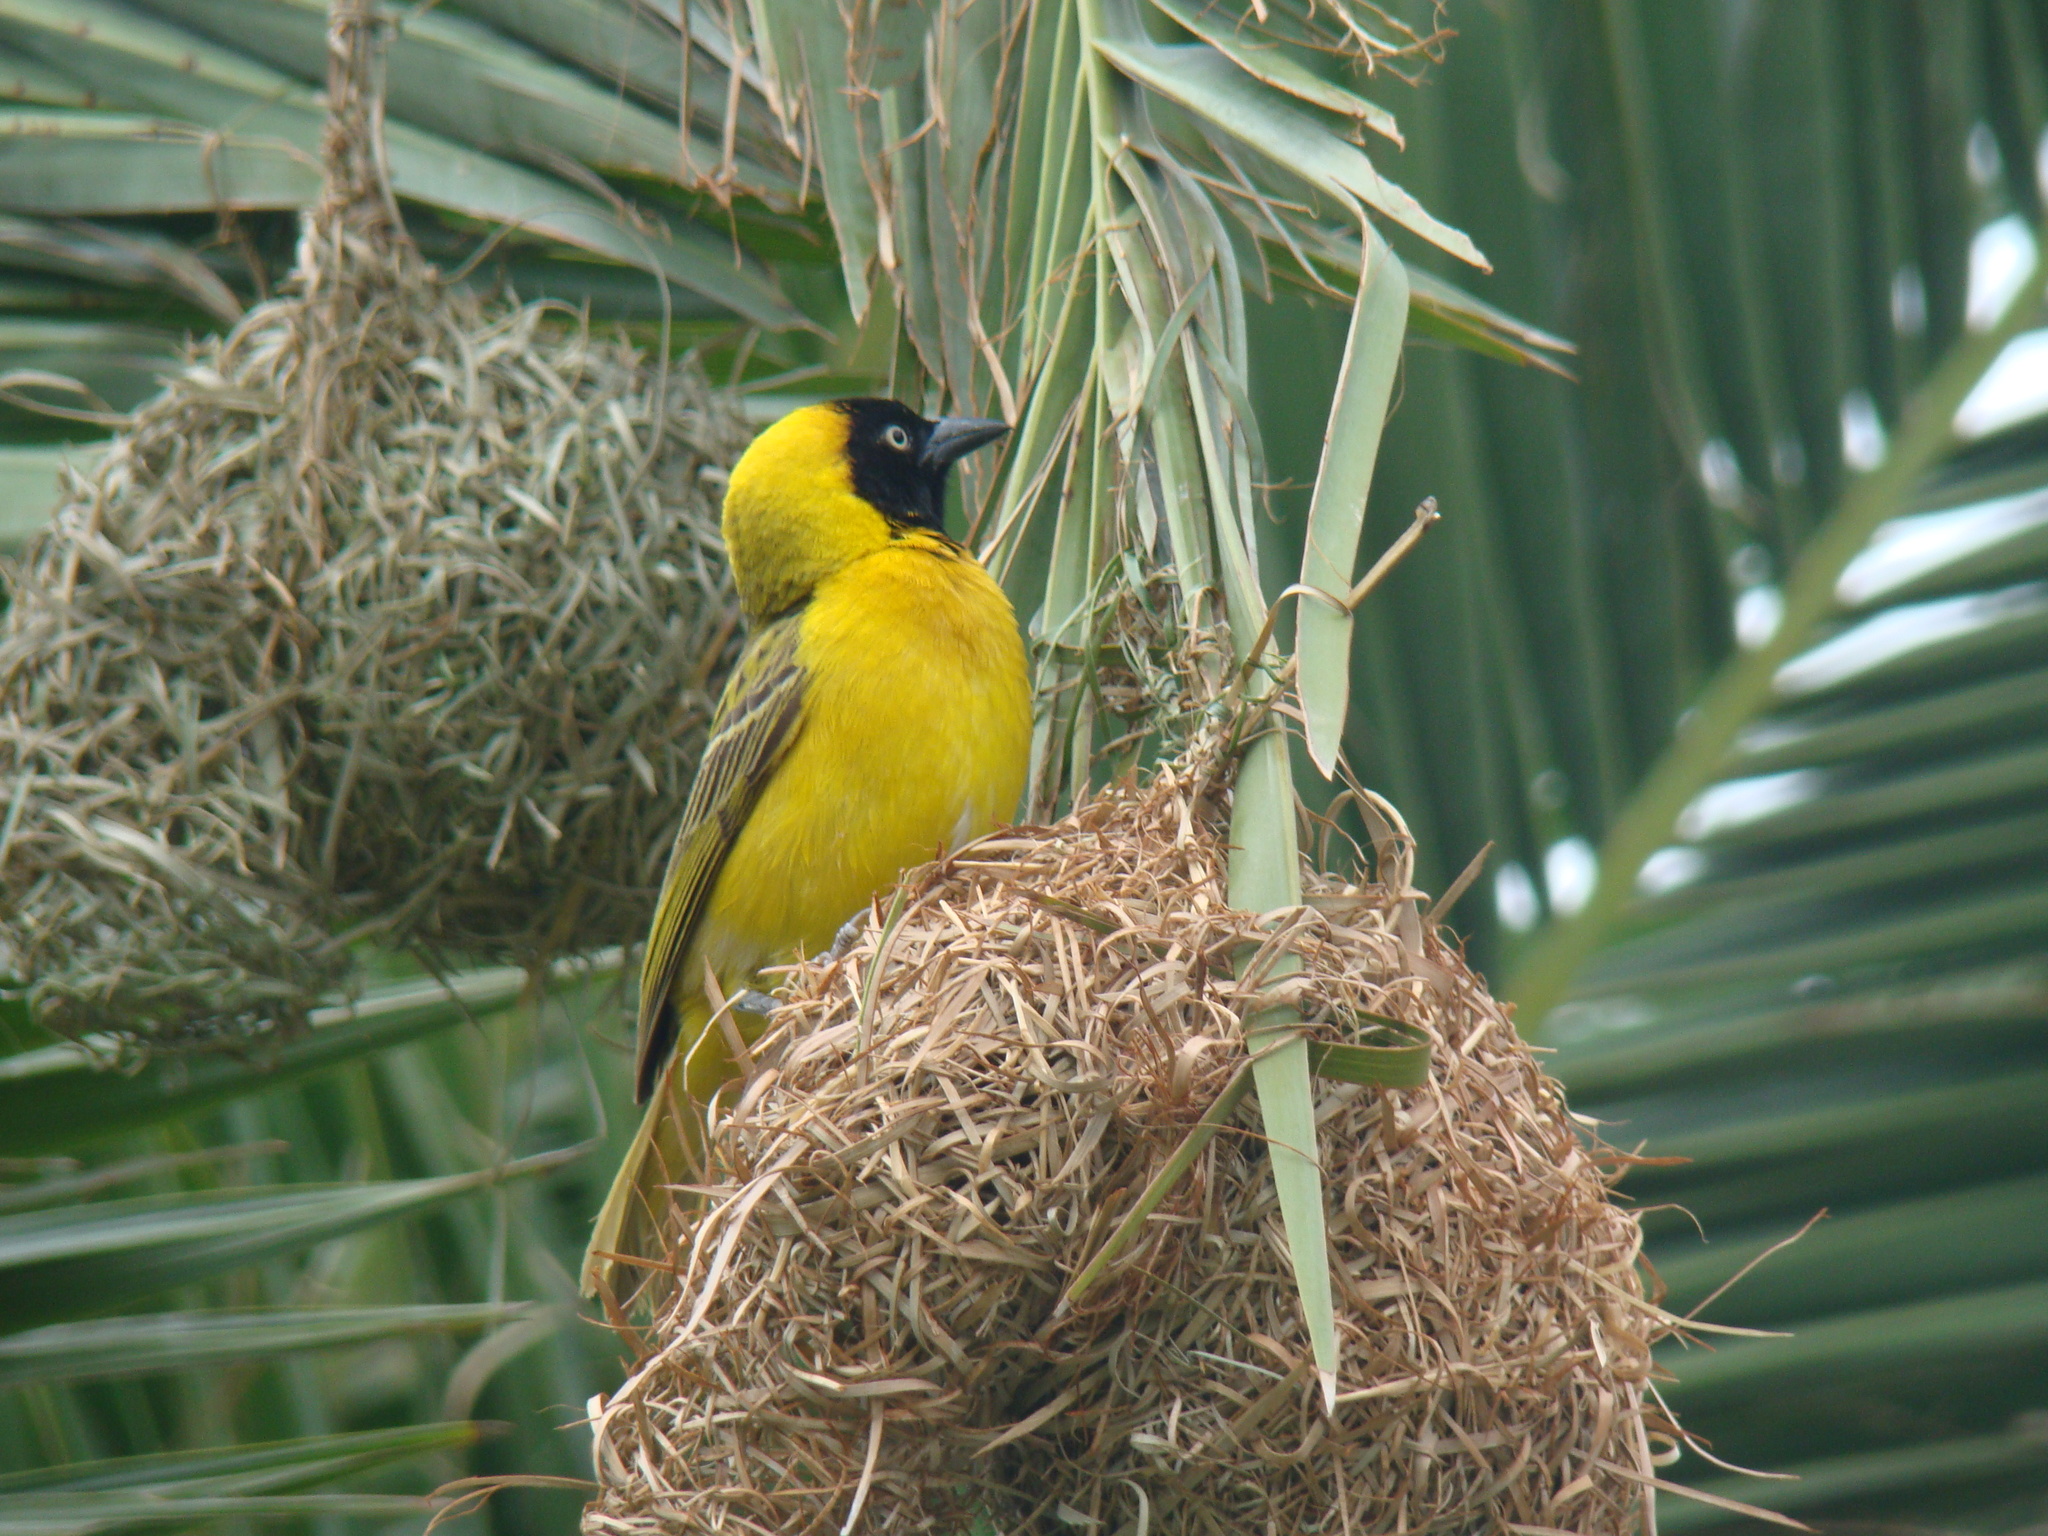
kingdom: Animalia
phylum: Chordata
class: Aves
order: Passeriformes
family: Ploceidae
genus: Ploceus
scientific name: Ploceus intermedius
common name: Lesser masked weaver
